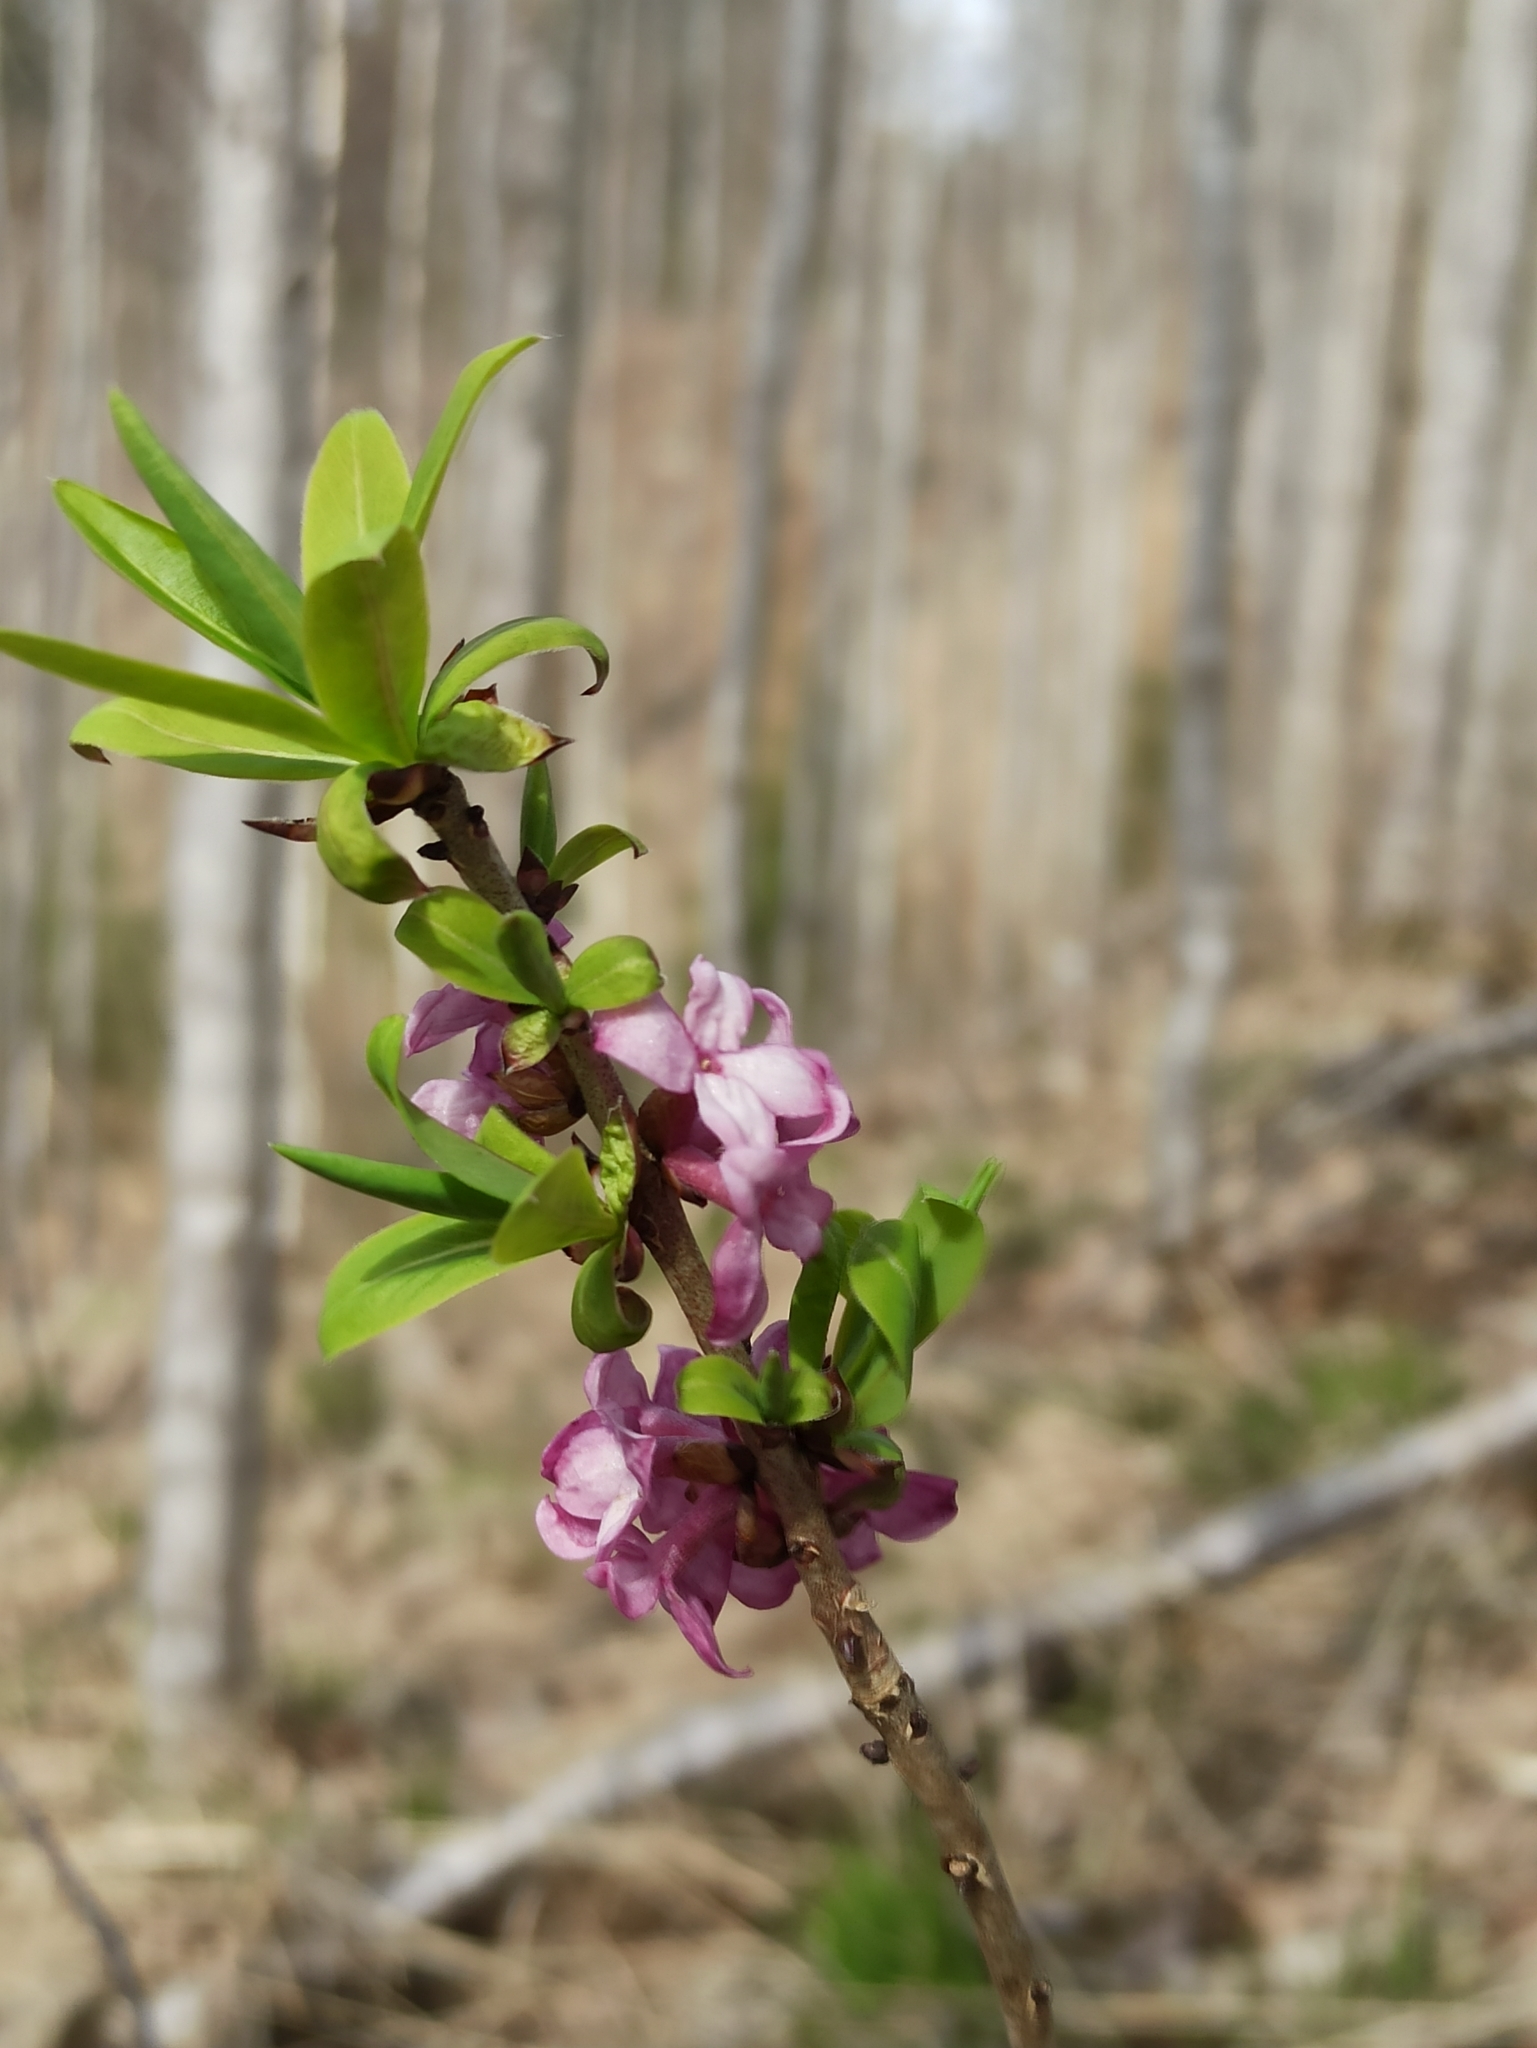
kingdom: Plantae
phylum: Tracheophyta
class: Magnoliopsida
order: Malvales
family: Thymelaeaceae
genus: Daphne
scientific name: Daphne mezereum
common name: Mezereon
